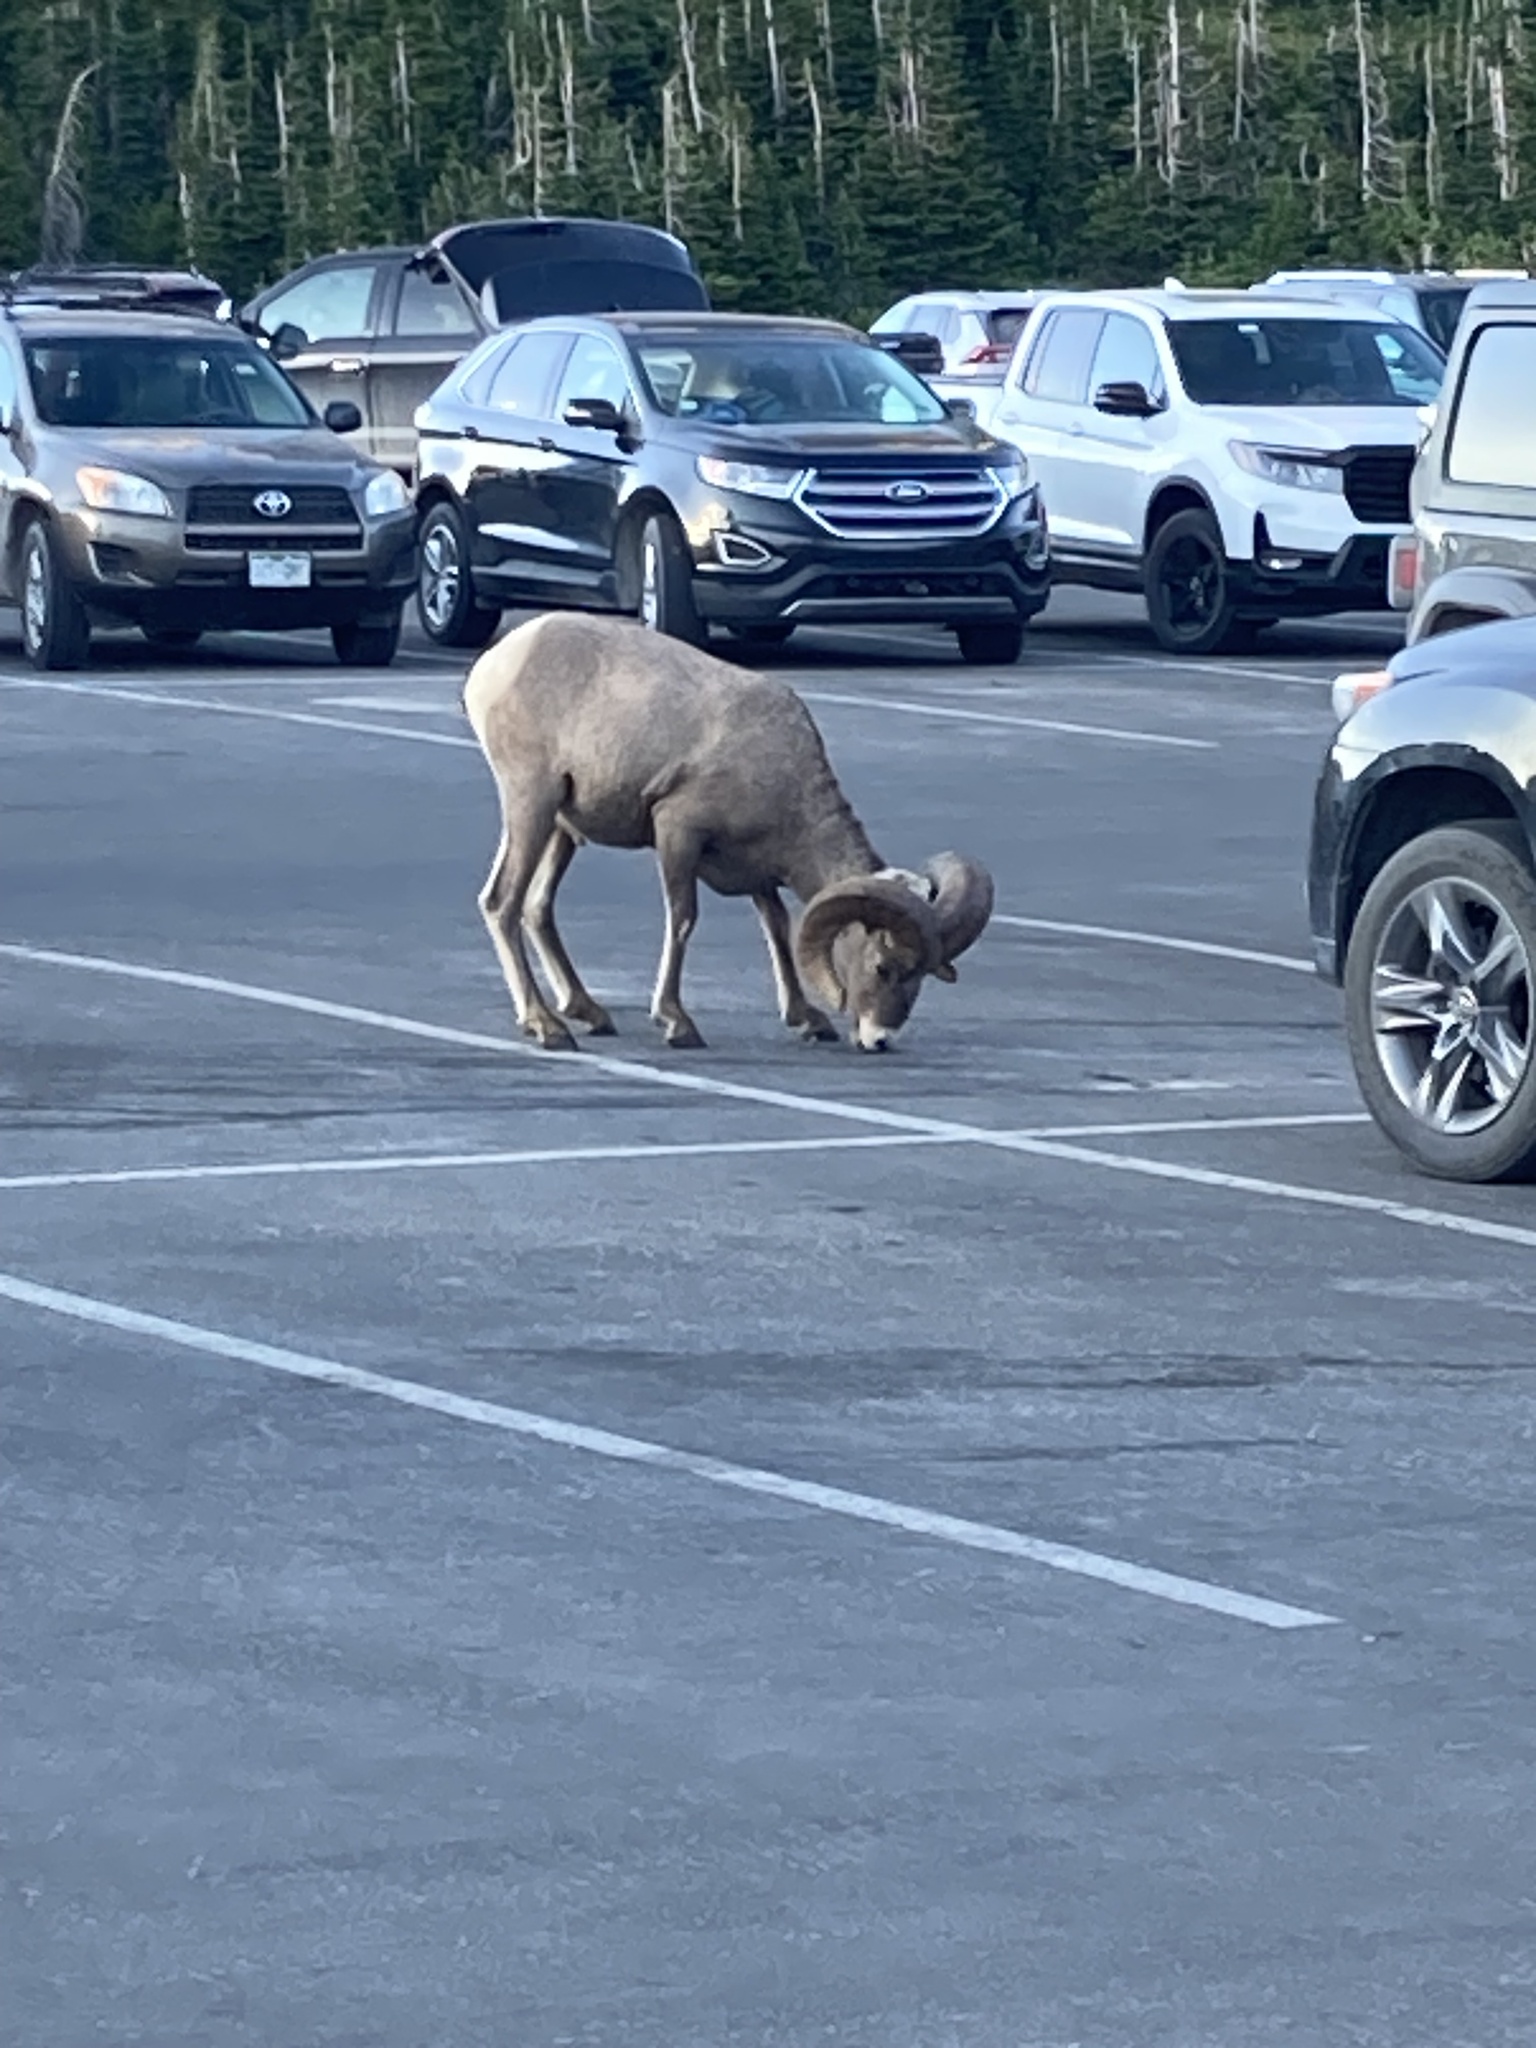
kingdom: Animalia
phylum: Chordata
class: Mammalia
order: Artiodactyla
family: Bovidae
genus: Ovis
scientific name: Ovis canadensis
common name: Bighorn sheep
